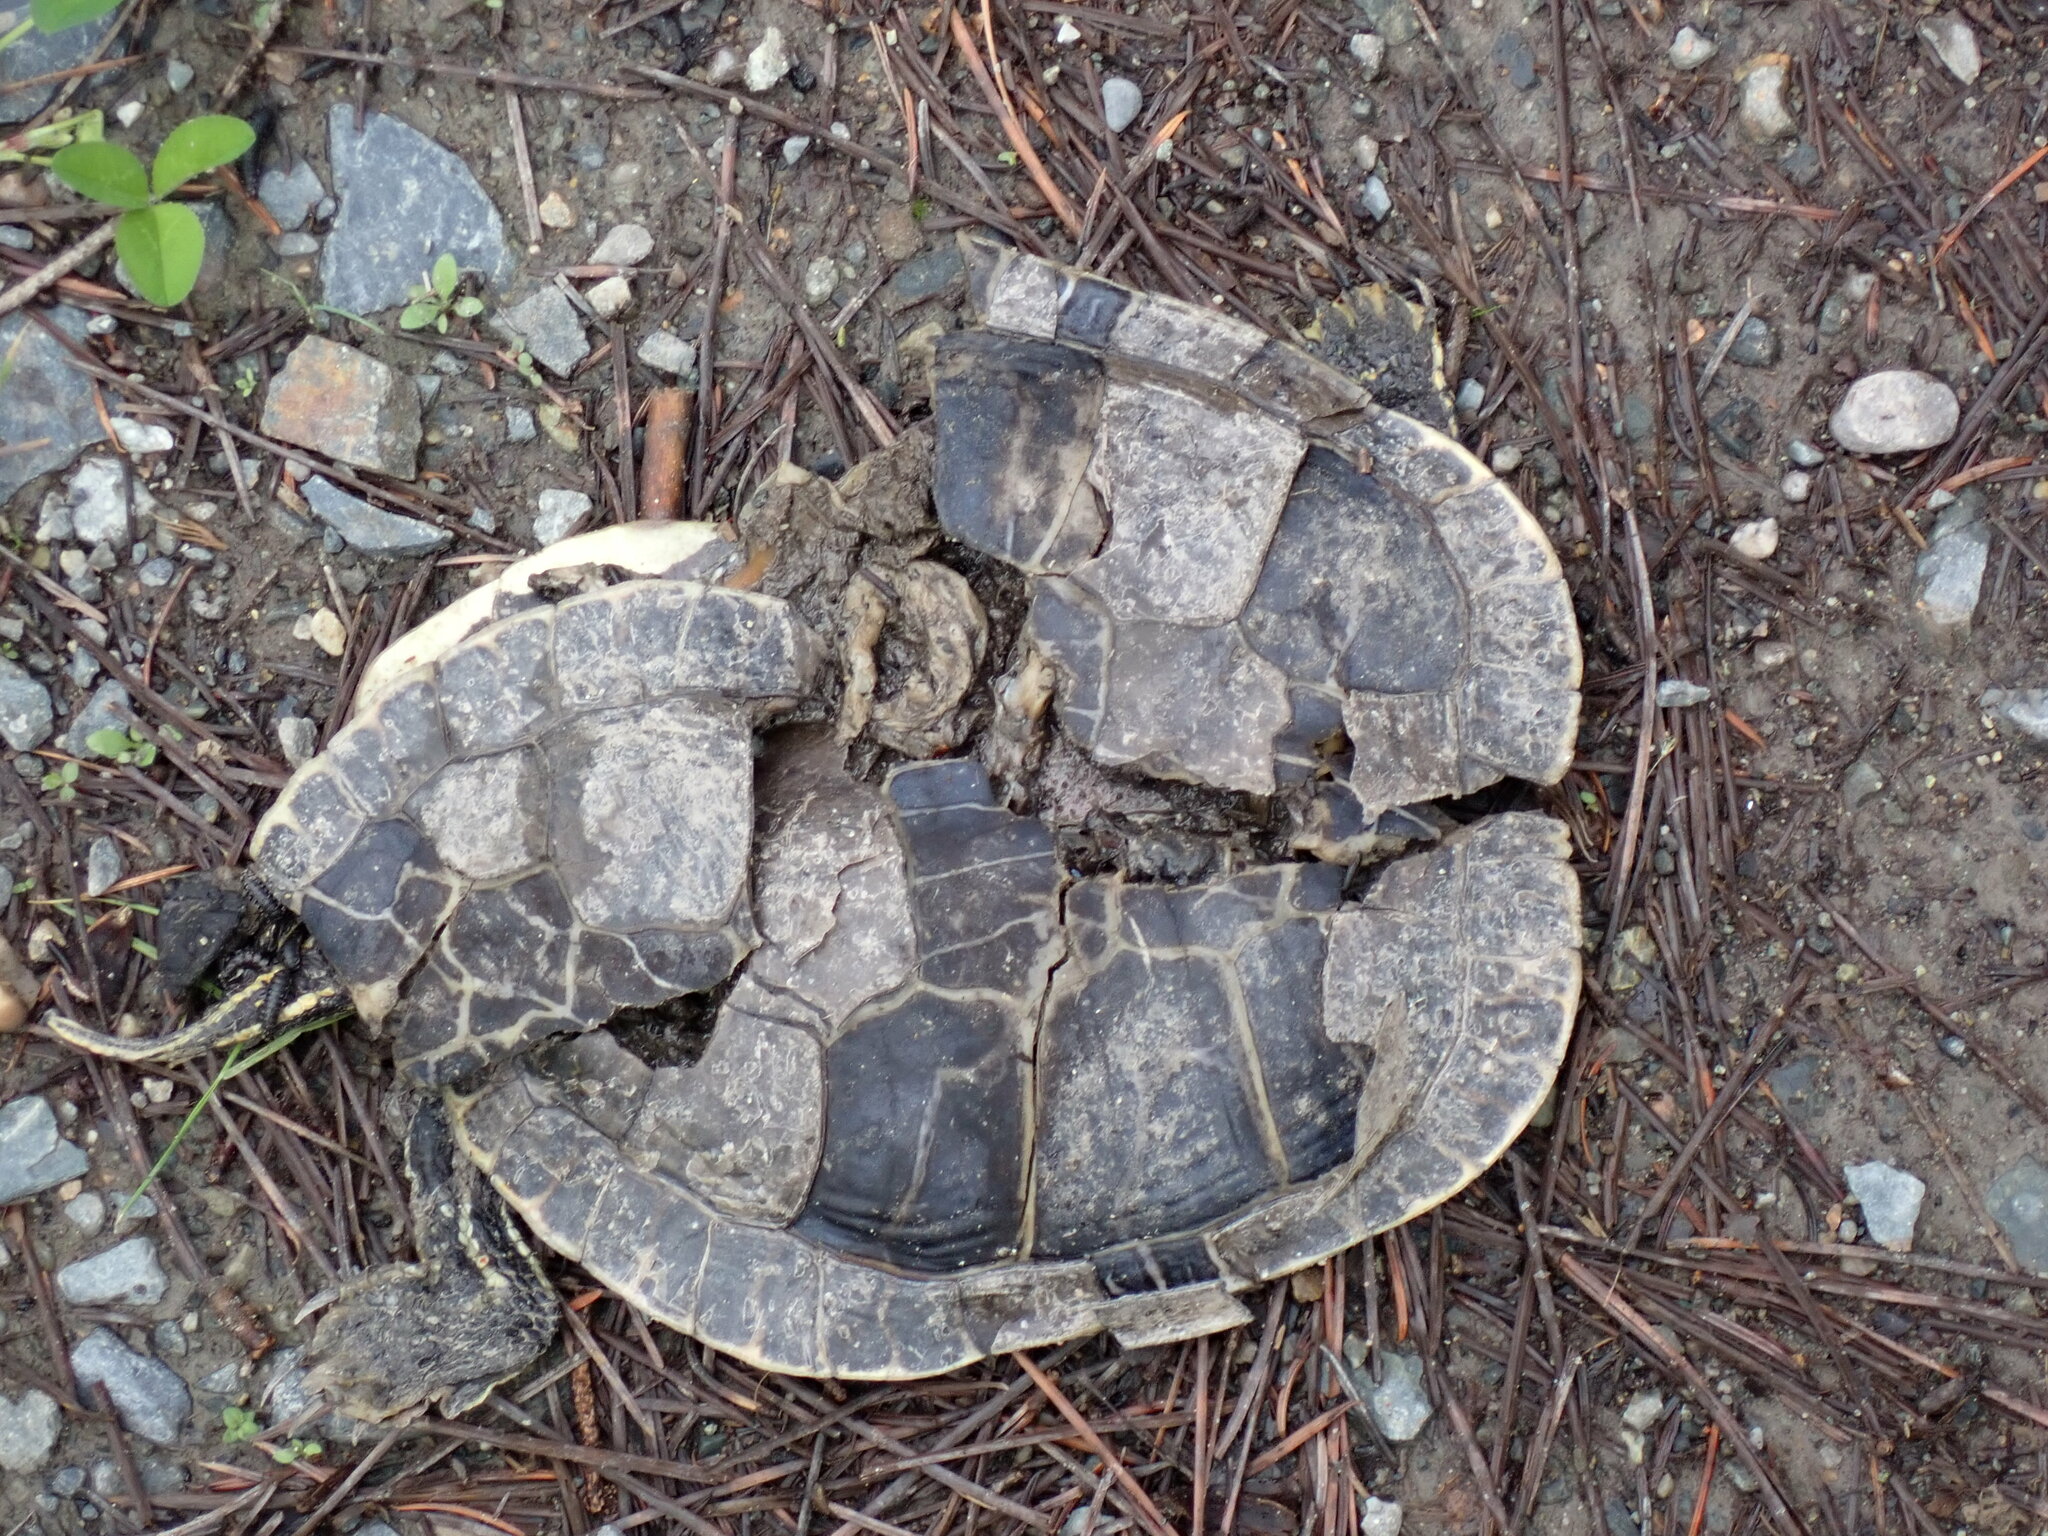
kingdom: Animalia
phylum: Chordata
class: Testudines
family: Emydidae
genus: Chrysemys
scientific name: Chrysemys picta
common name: Painted turtle
